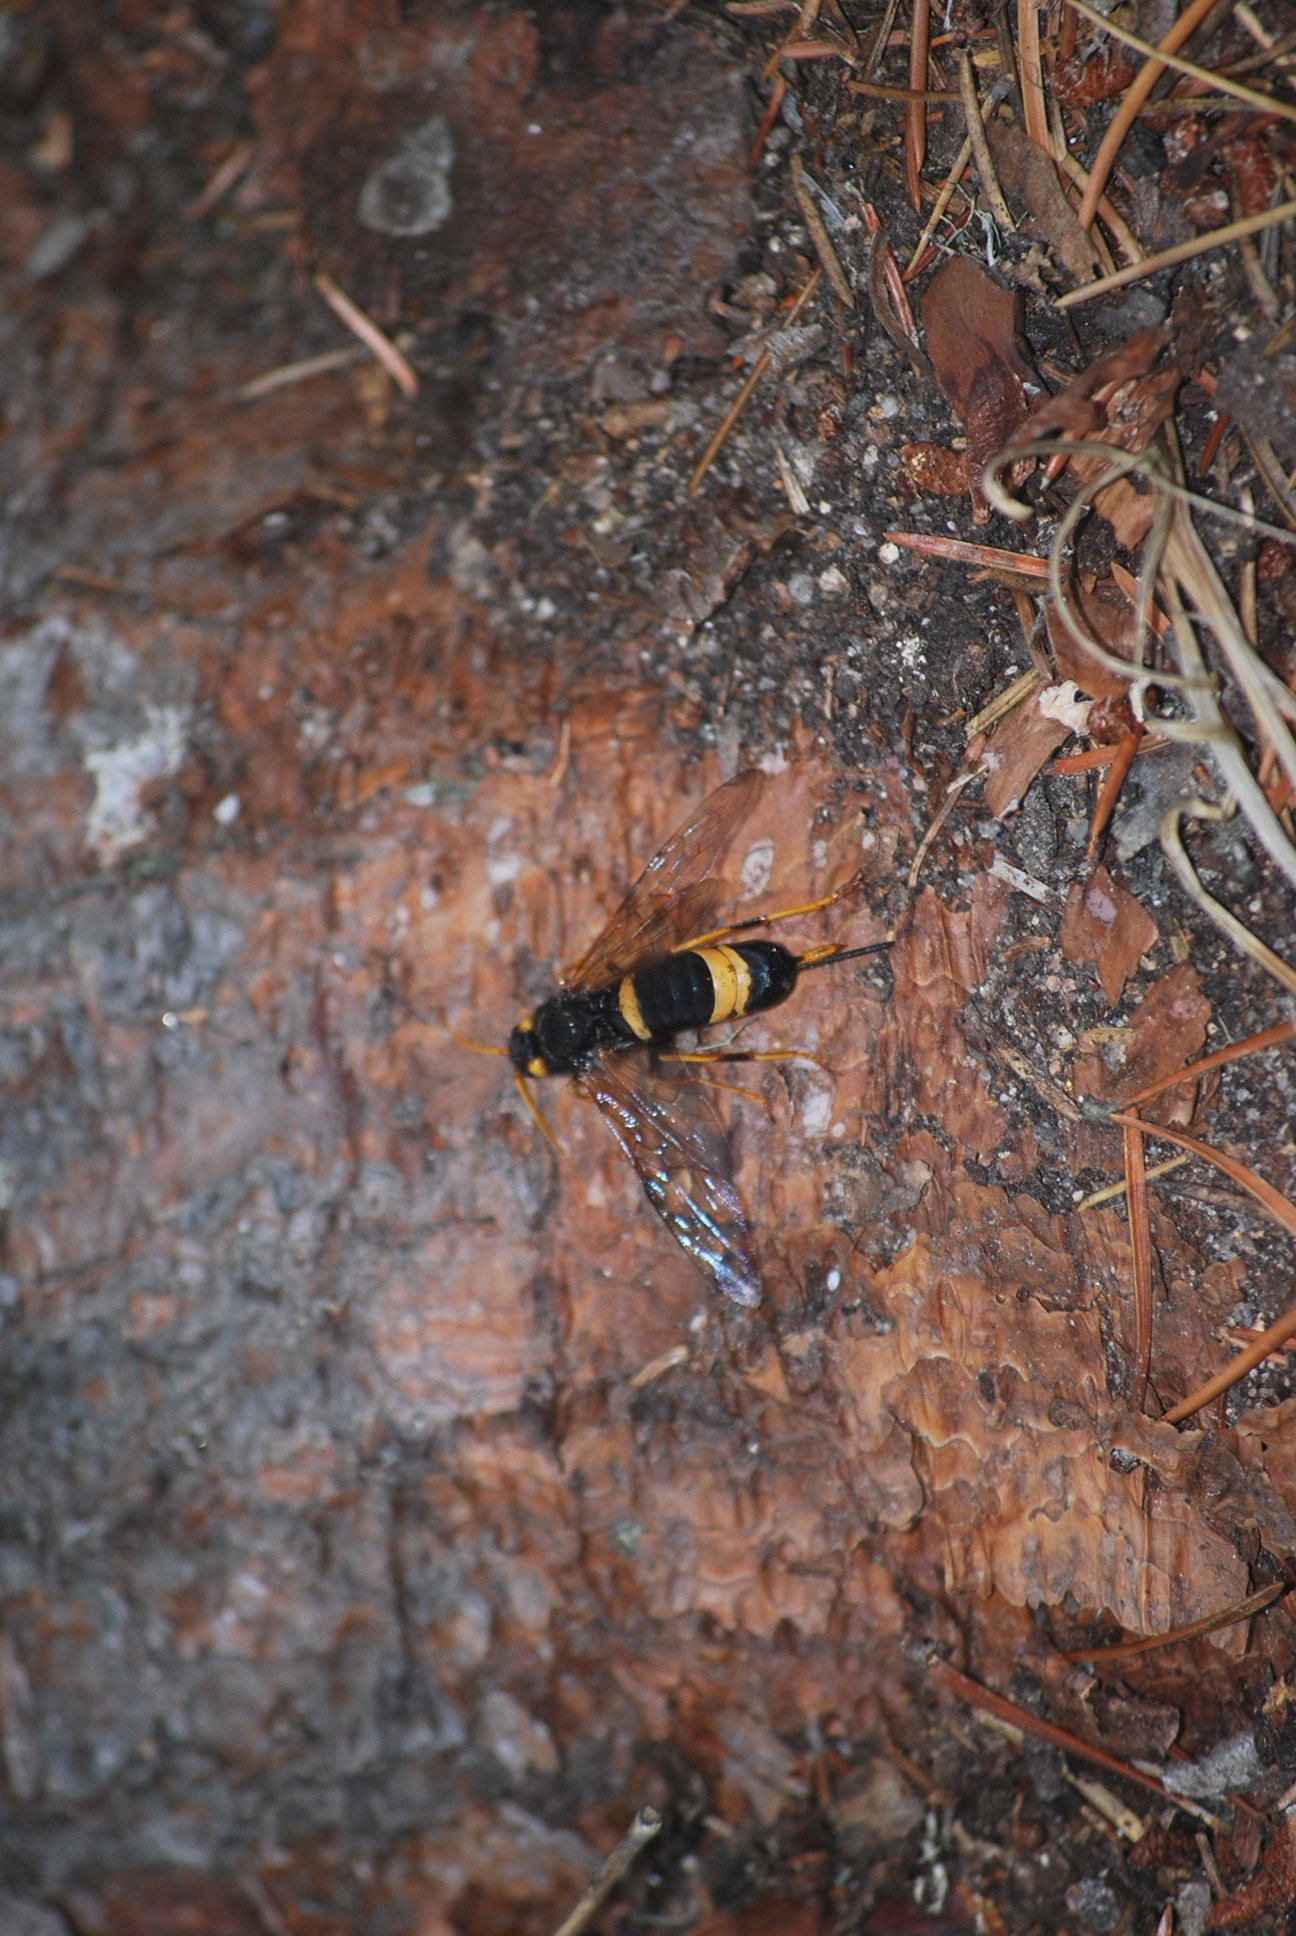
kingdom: Animalia
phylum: Arthropoda
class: Insecta
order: Hymenoptera
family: Siricidae
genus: Urocerus
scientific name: Urocerus flavicornis
